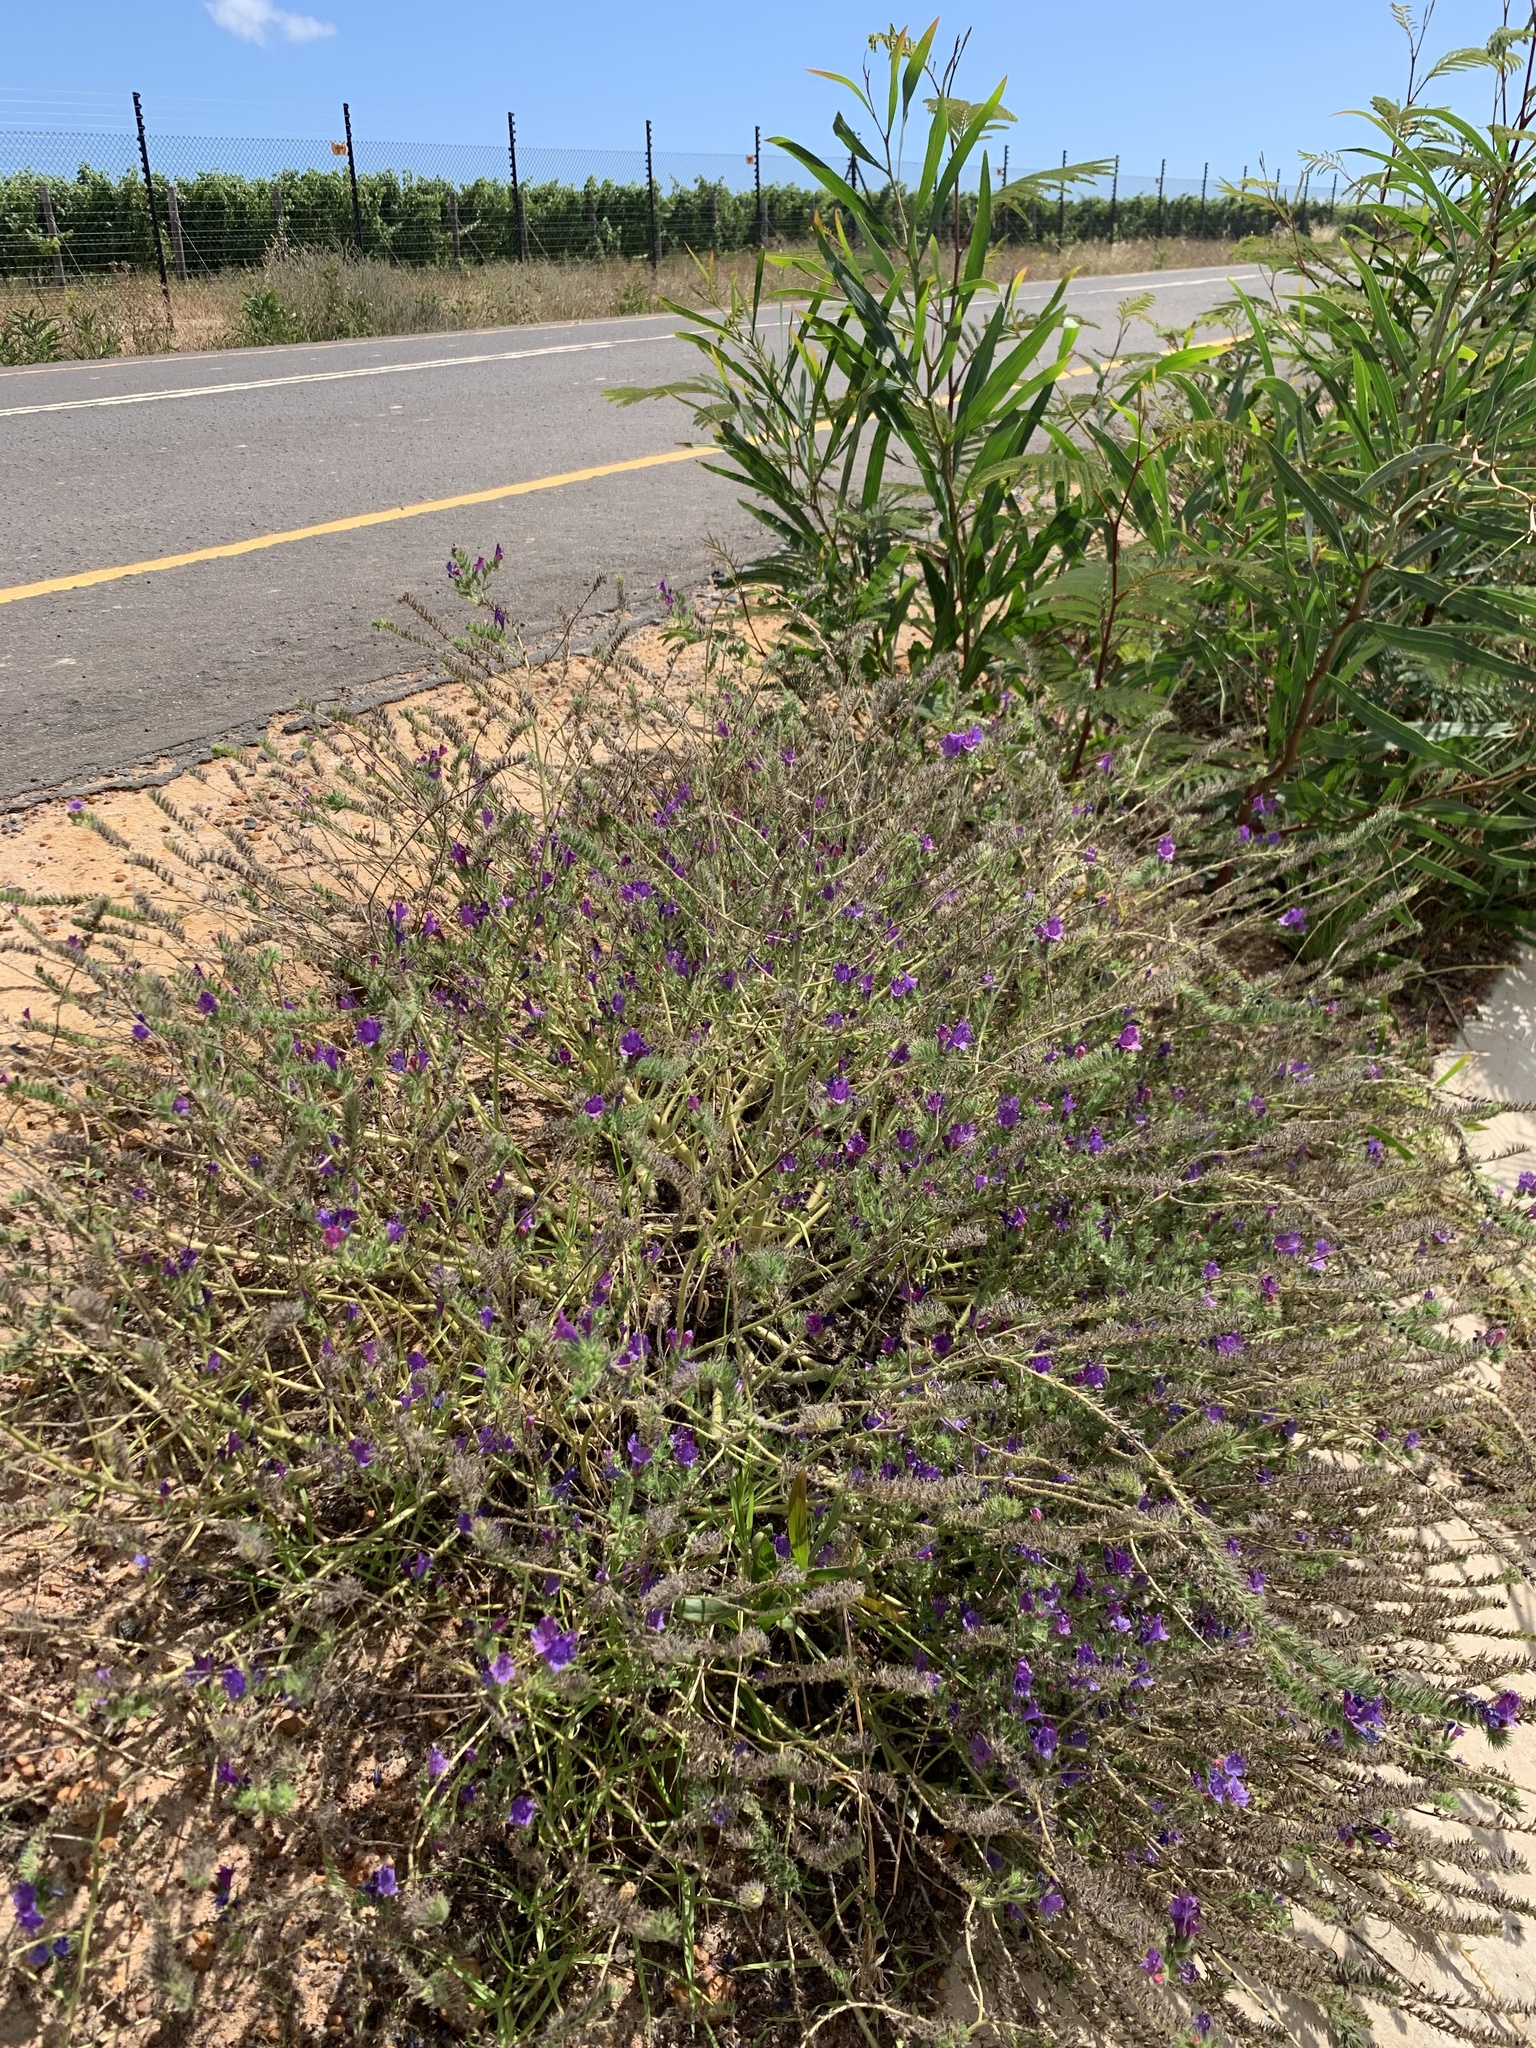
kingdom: Plantae
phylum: Tracheophyta
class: Magnoliopsida
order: Boraginales
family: Boraginaceae
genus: Echium
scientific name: Echium plantagineum
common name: Purple viper's-bugloss
